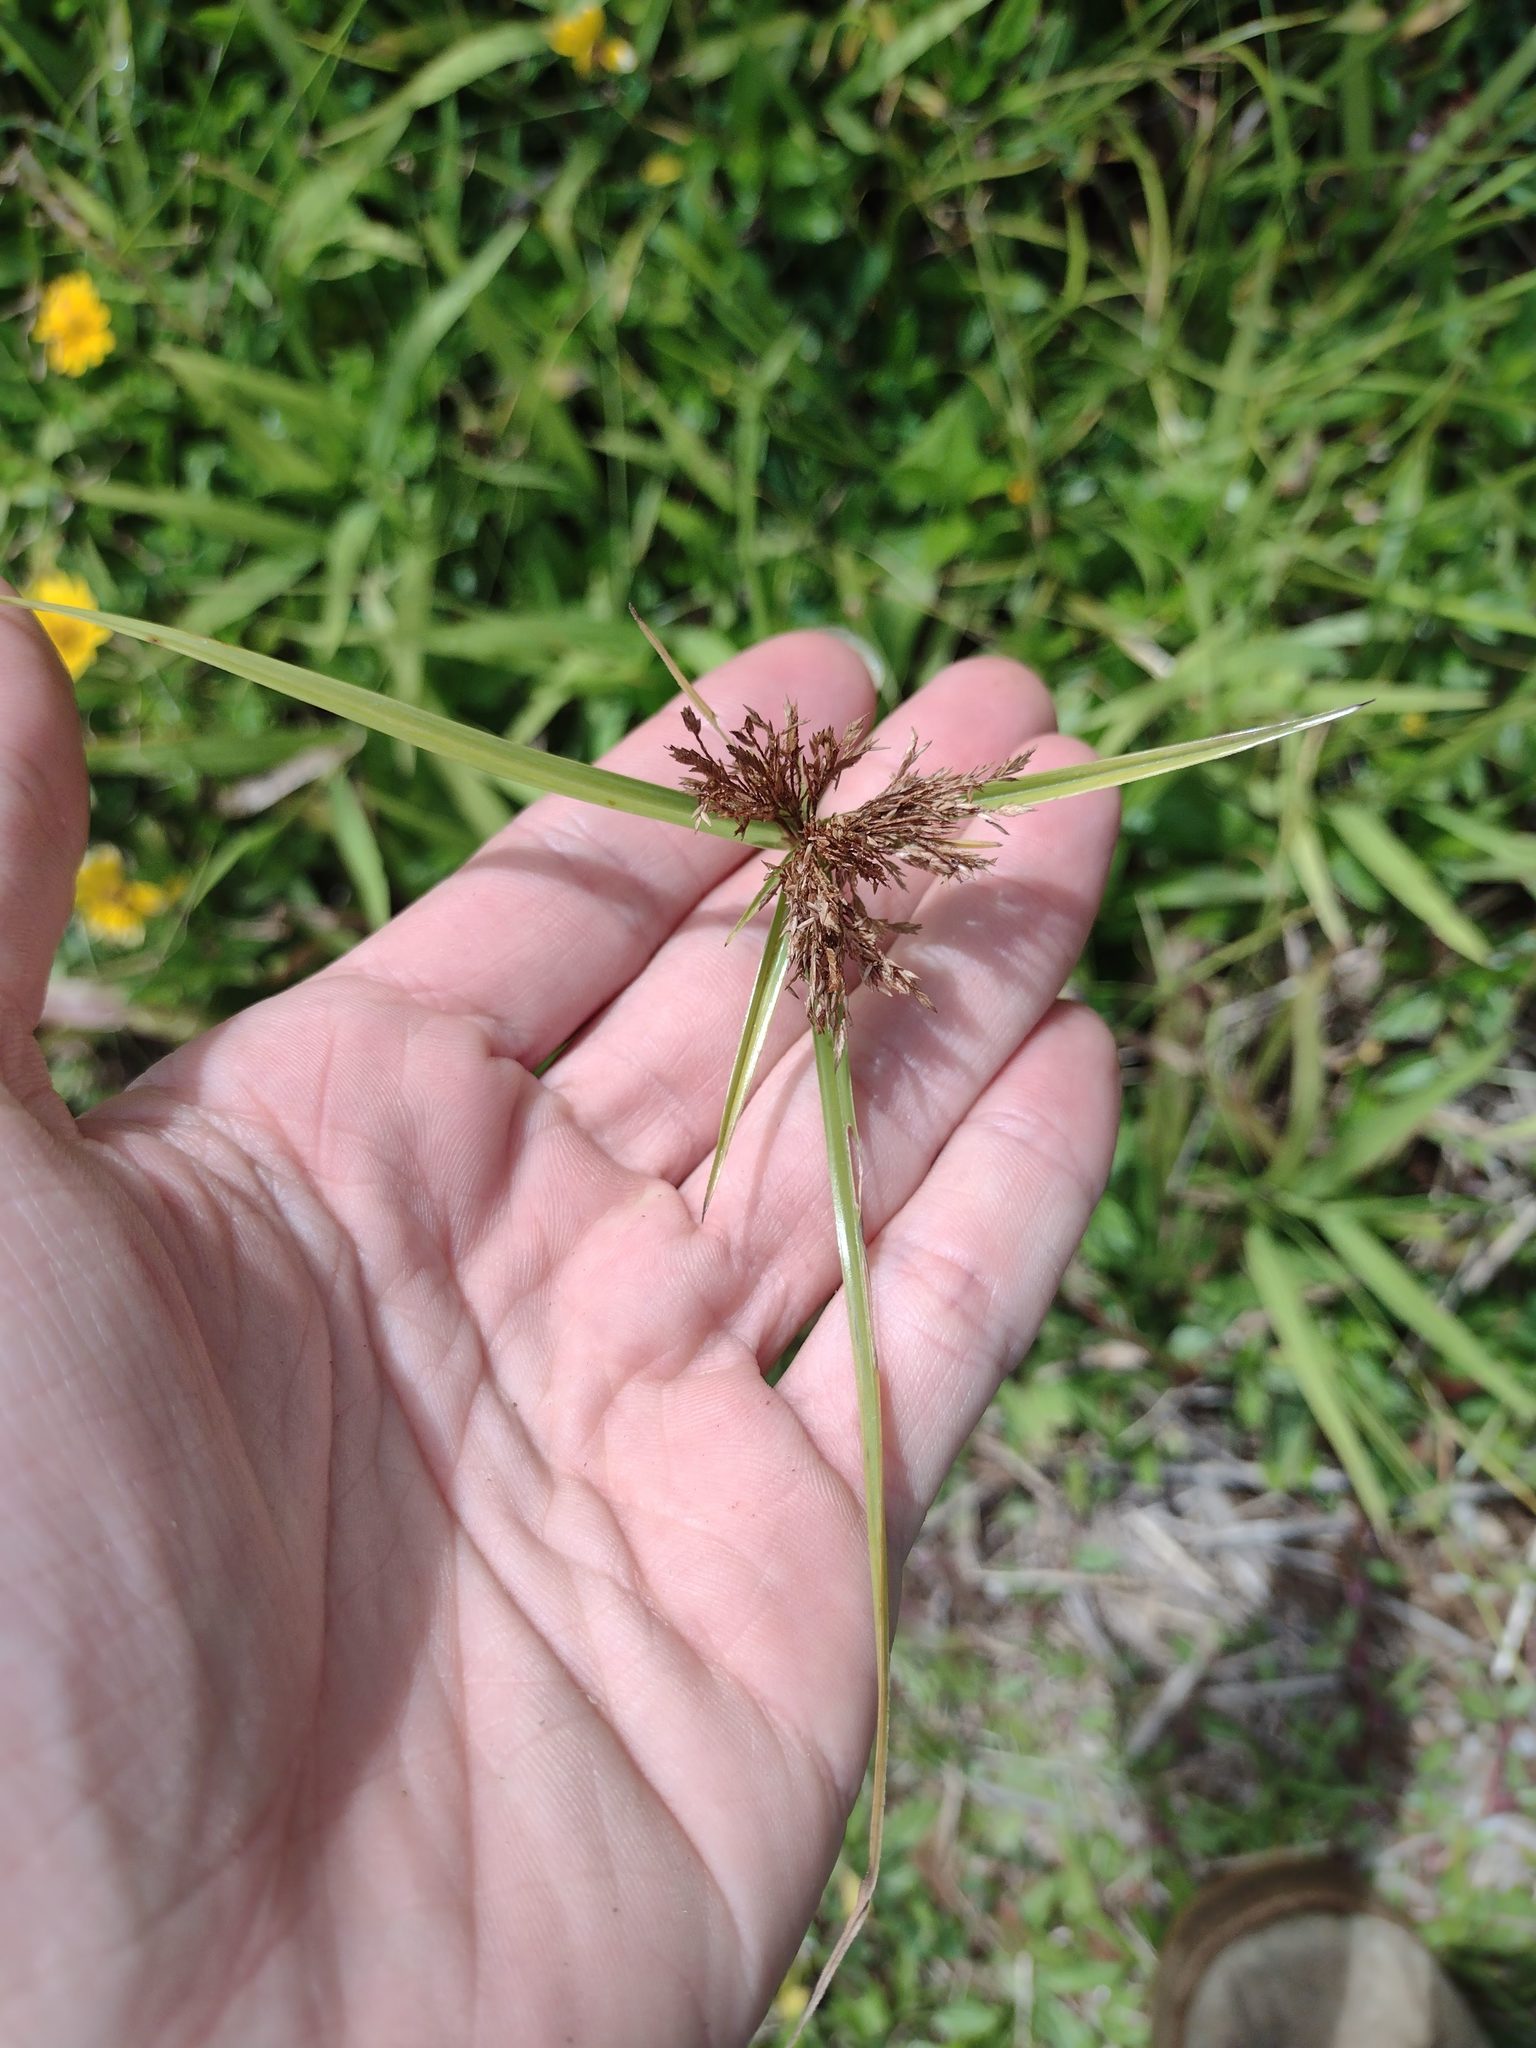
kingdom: Plantae
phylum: Tracheophyta
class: Liliopsida
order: Poales
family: Cyperaceae
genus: Cyperus
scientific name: Cyperus polystachyos
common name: Bunchy flat sedge
